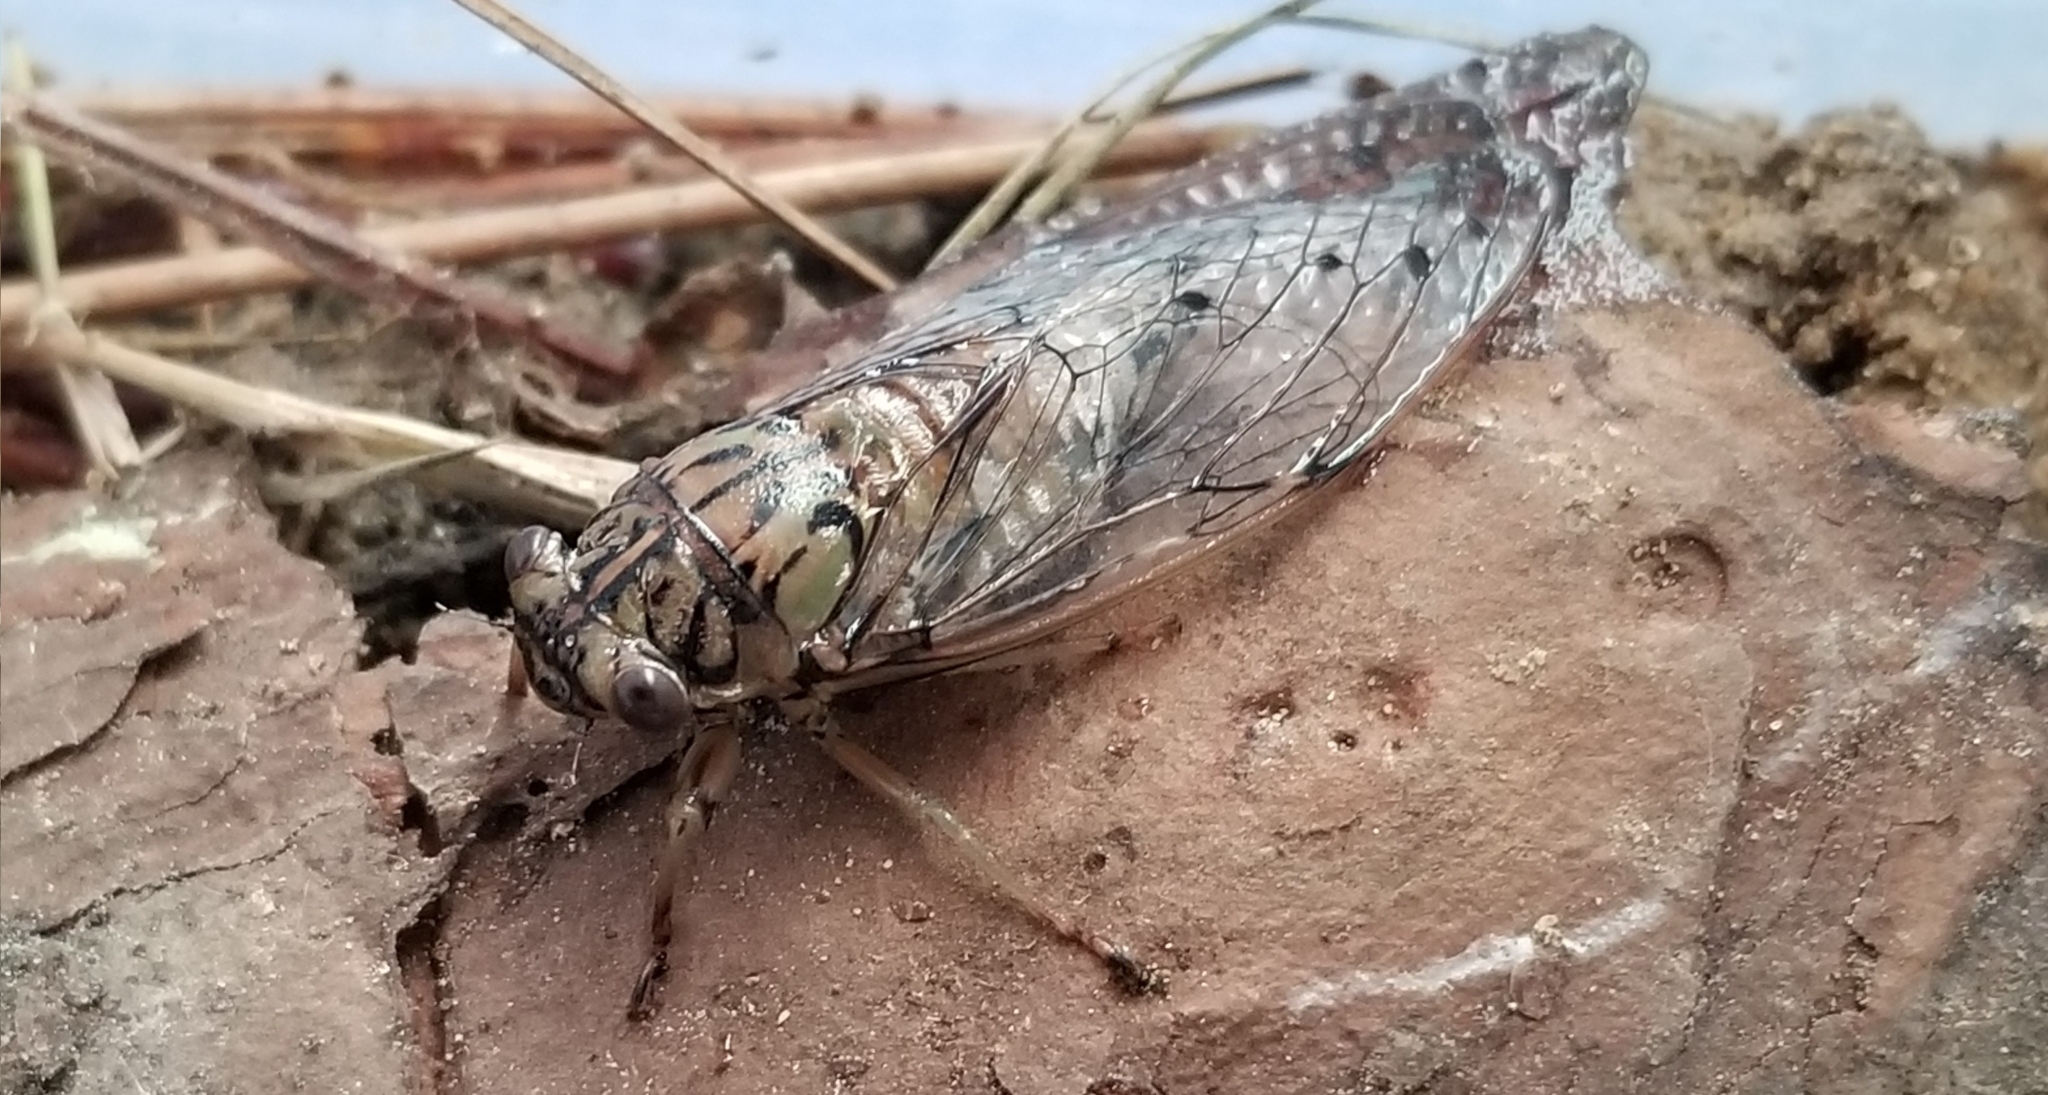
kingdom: Animalia
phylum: Arthropoda
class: Insecta
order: Hemiptera
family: Cicadidae
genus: Neocicada
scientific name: Neocicada hieroglyphica
